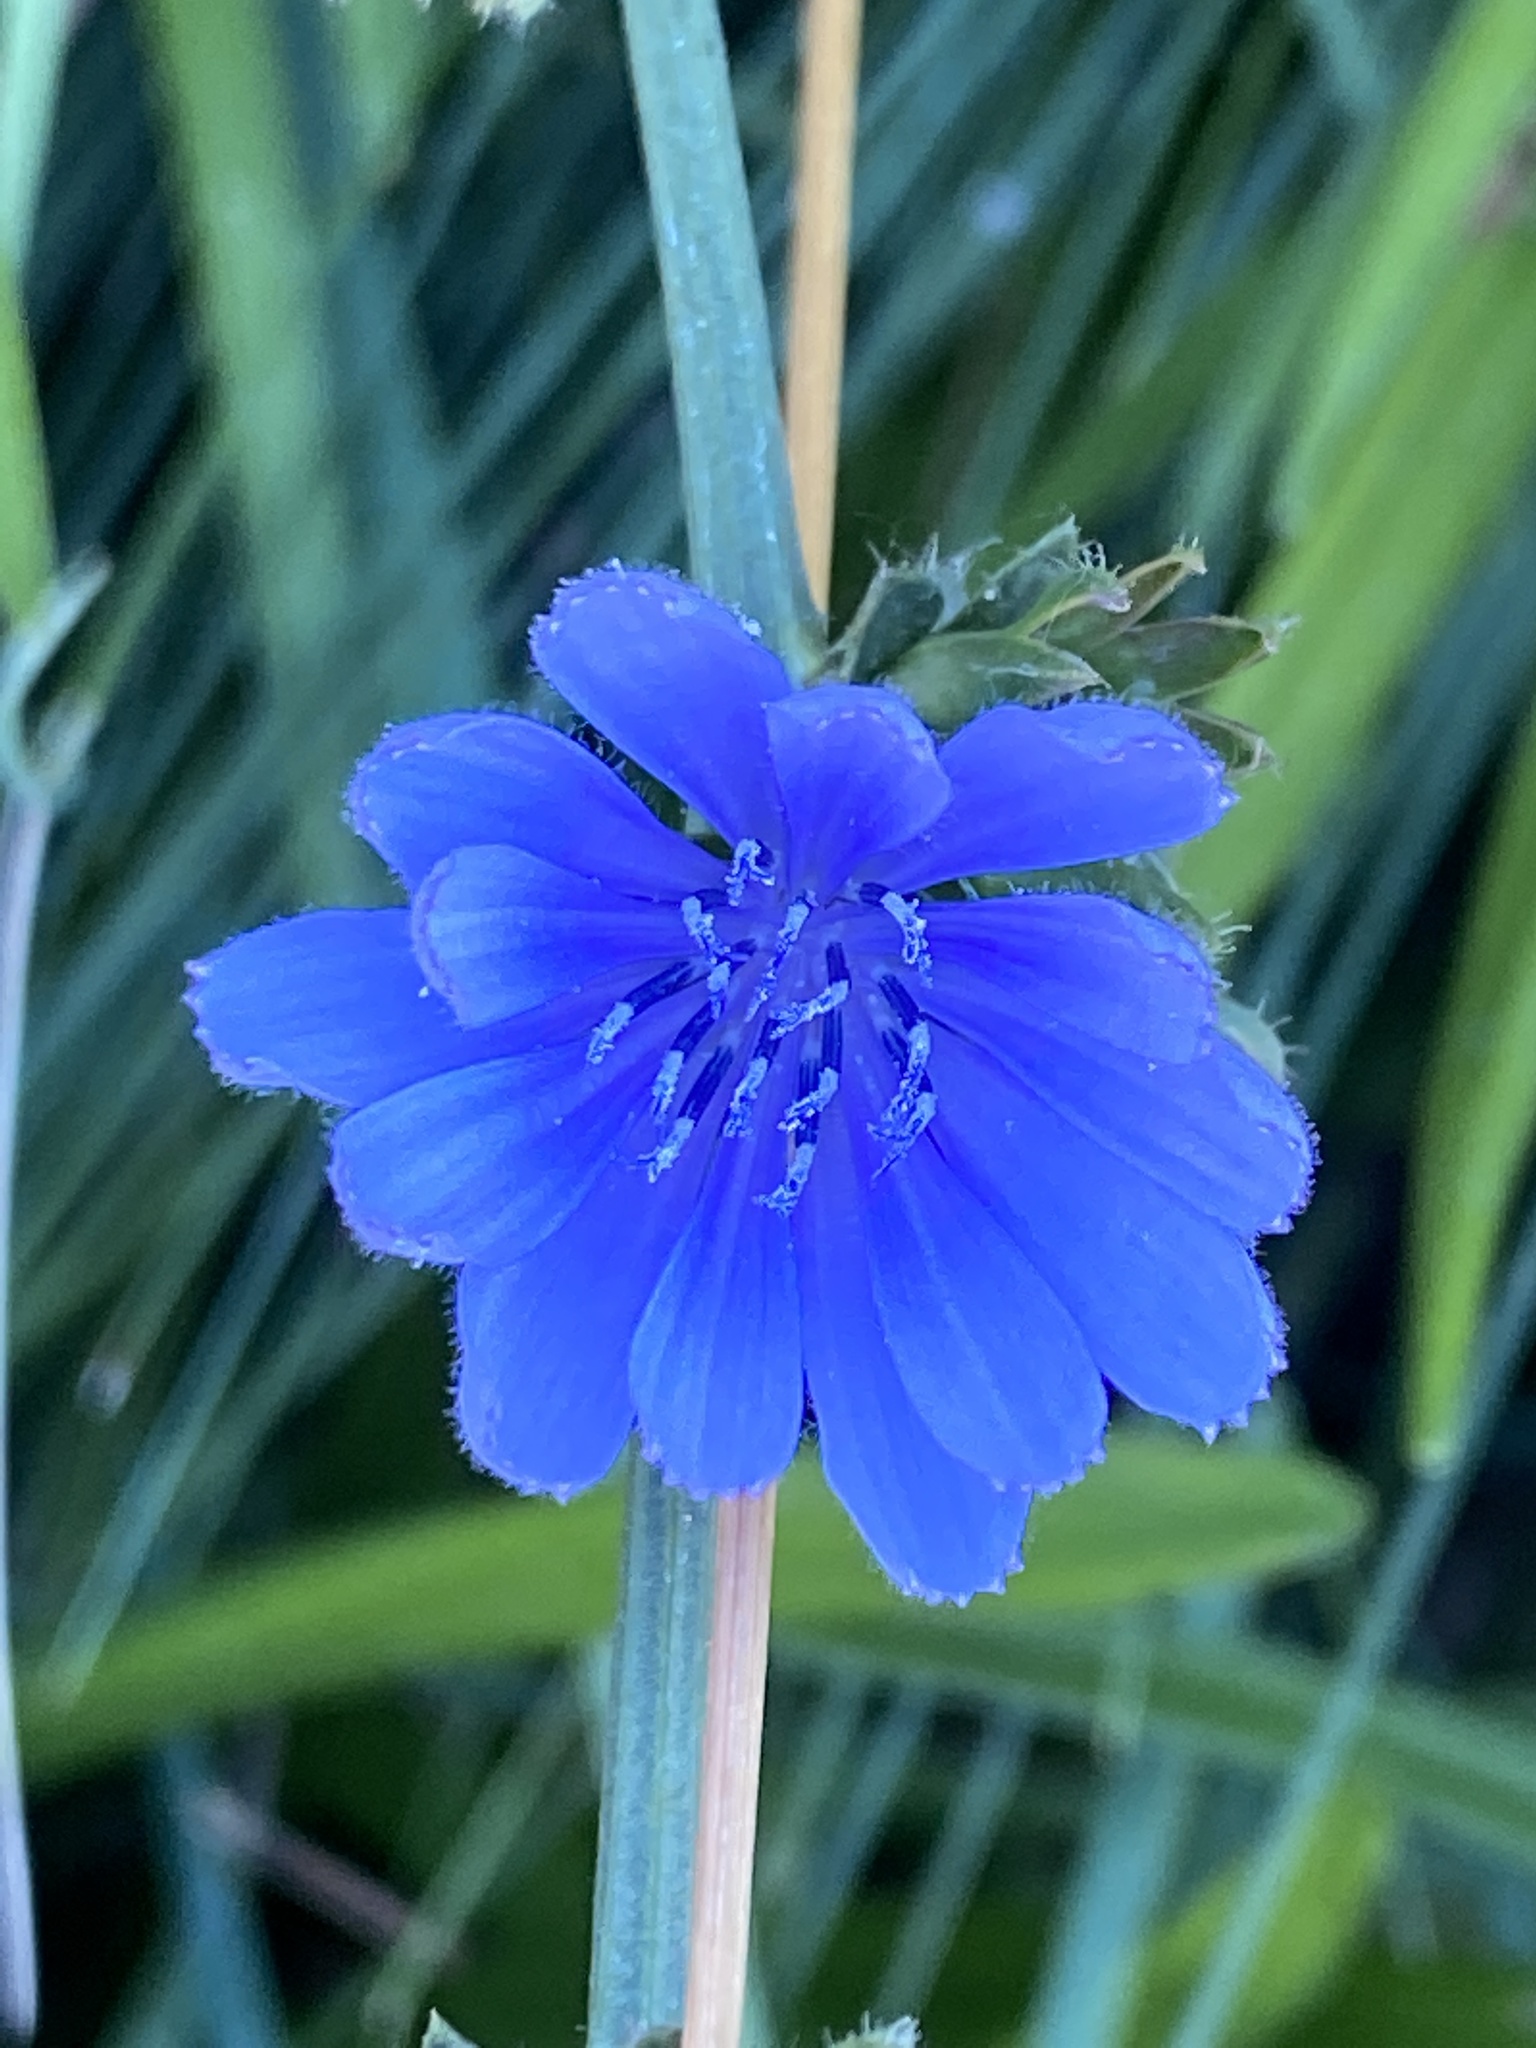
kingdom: Plantae
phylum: Tracheophyta
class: Magnoliopsida
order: Asterales
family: Asteraceae
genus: Cichorium
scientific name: Cichorium intybus
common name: Chicory
